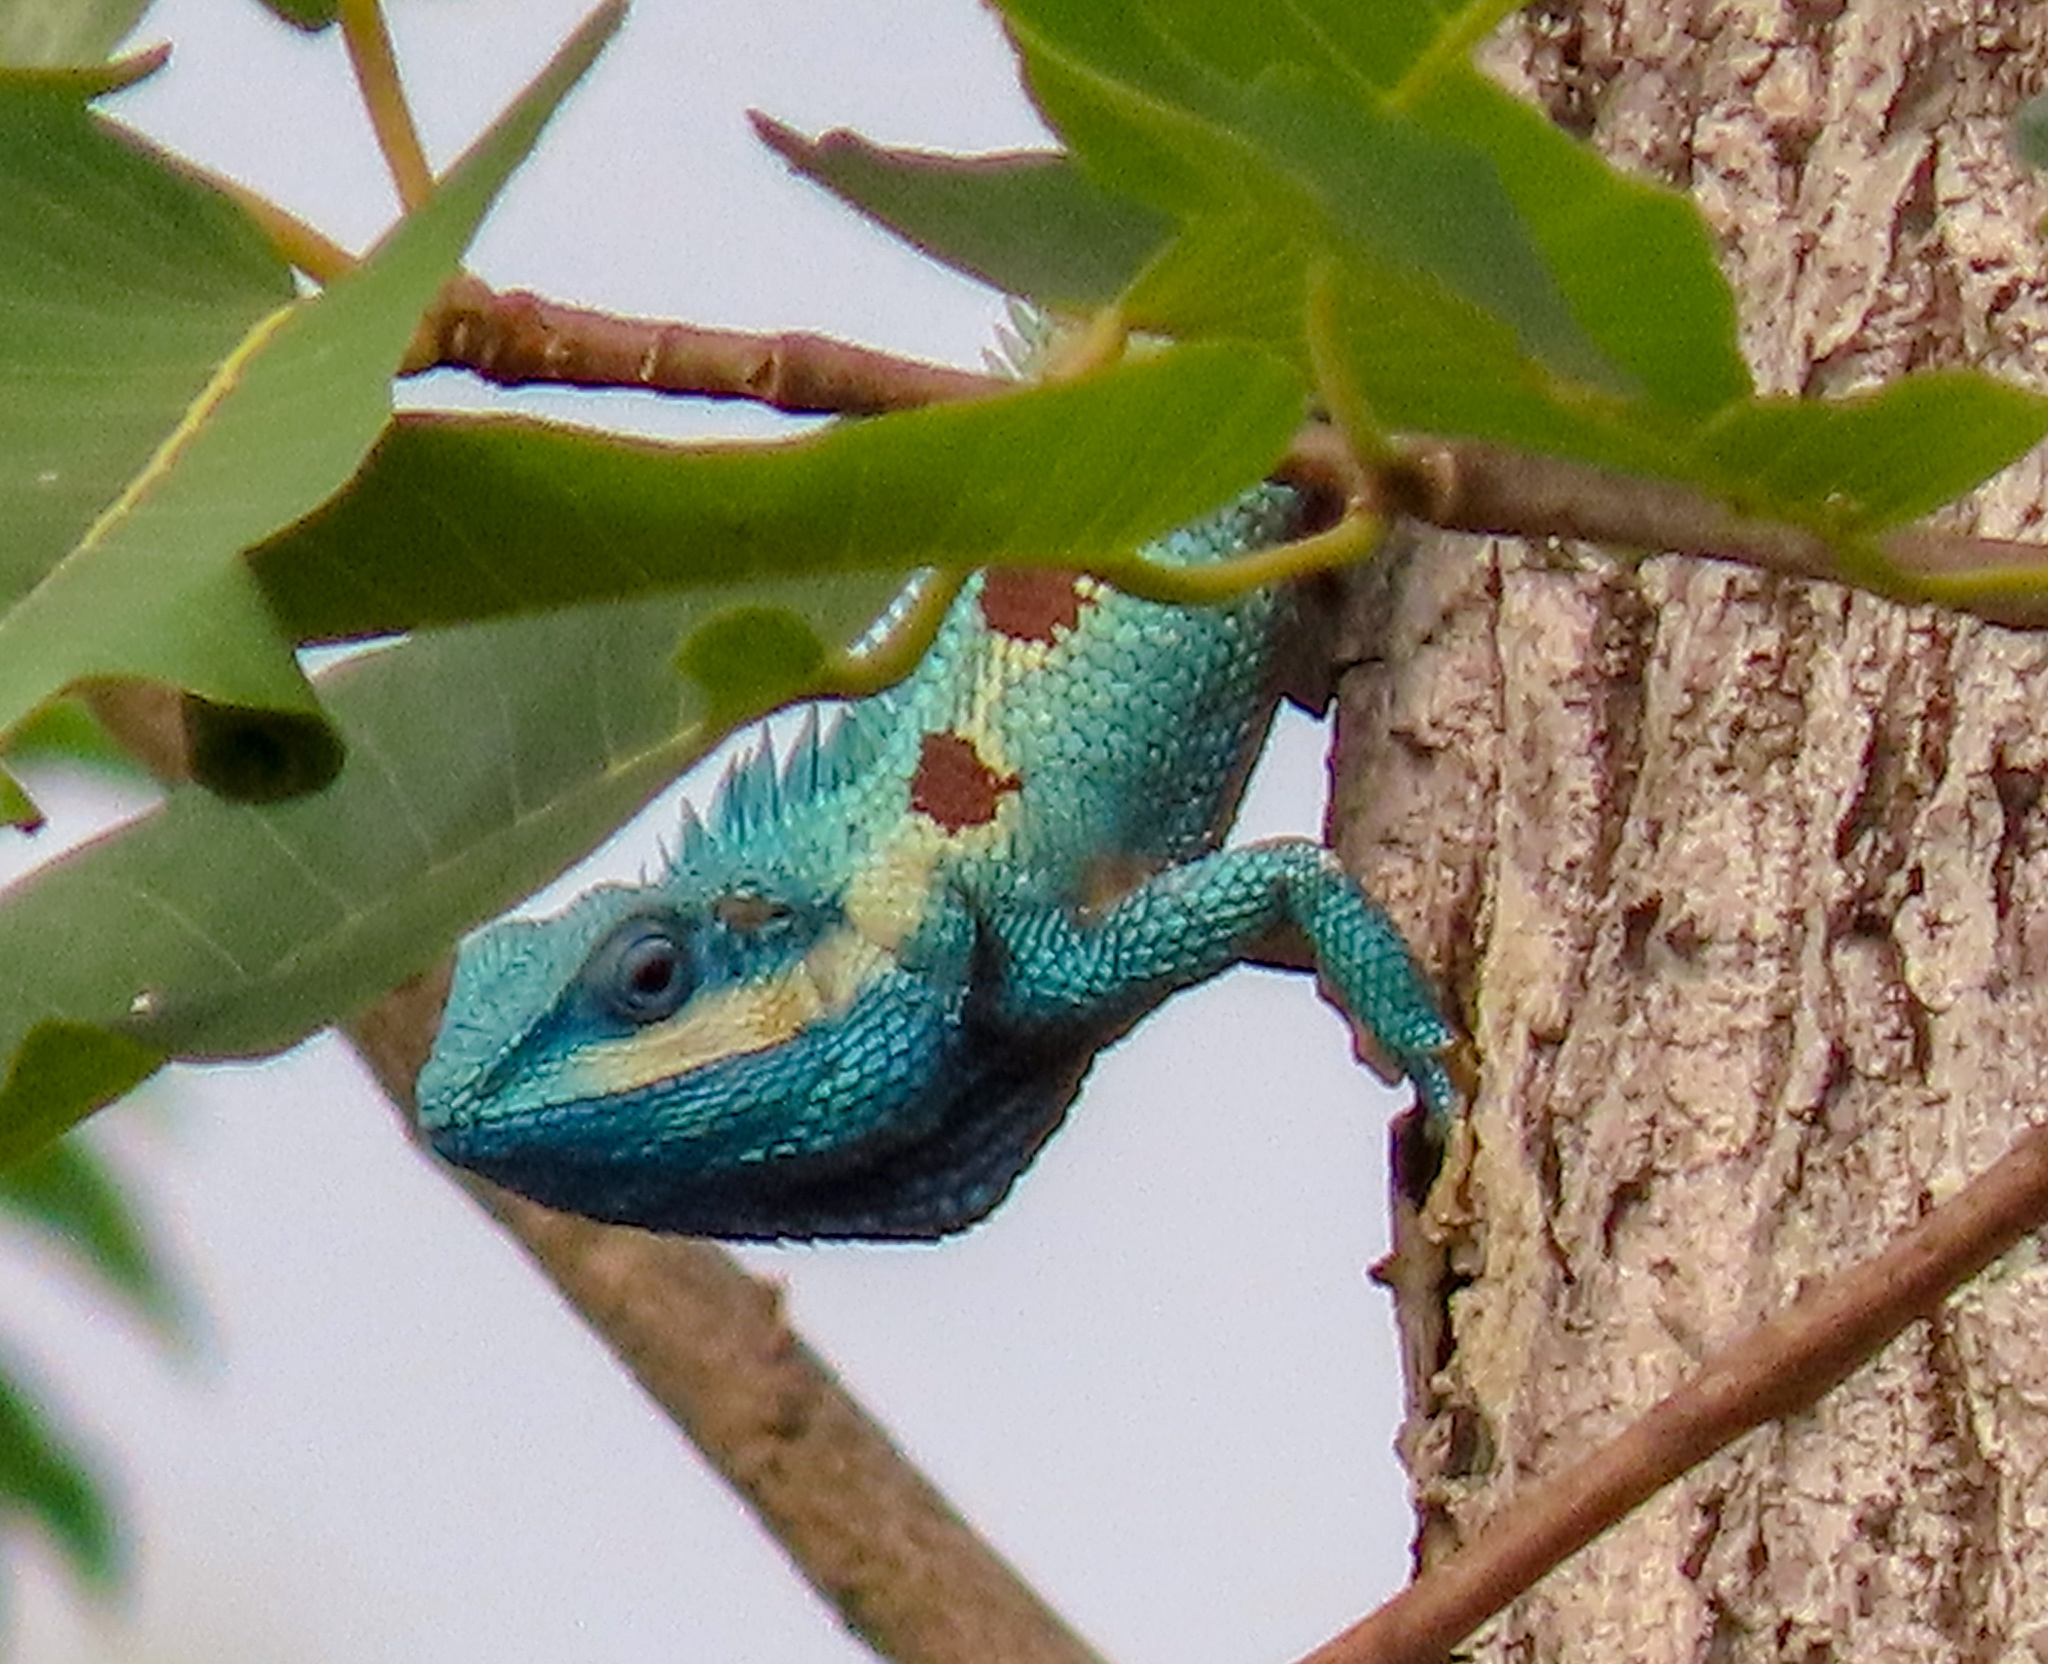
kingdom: Animalia
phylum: Chordata
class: Squamata
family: Agamidae
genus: Calotes
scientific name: Calotes goetzi
